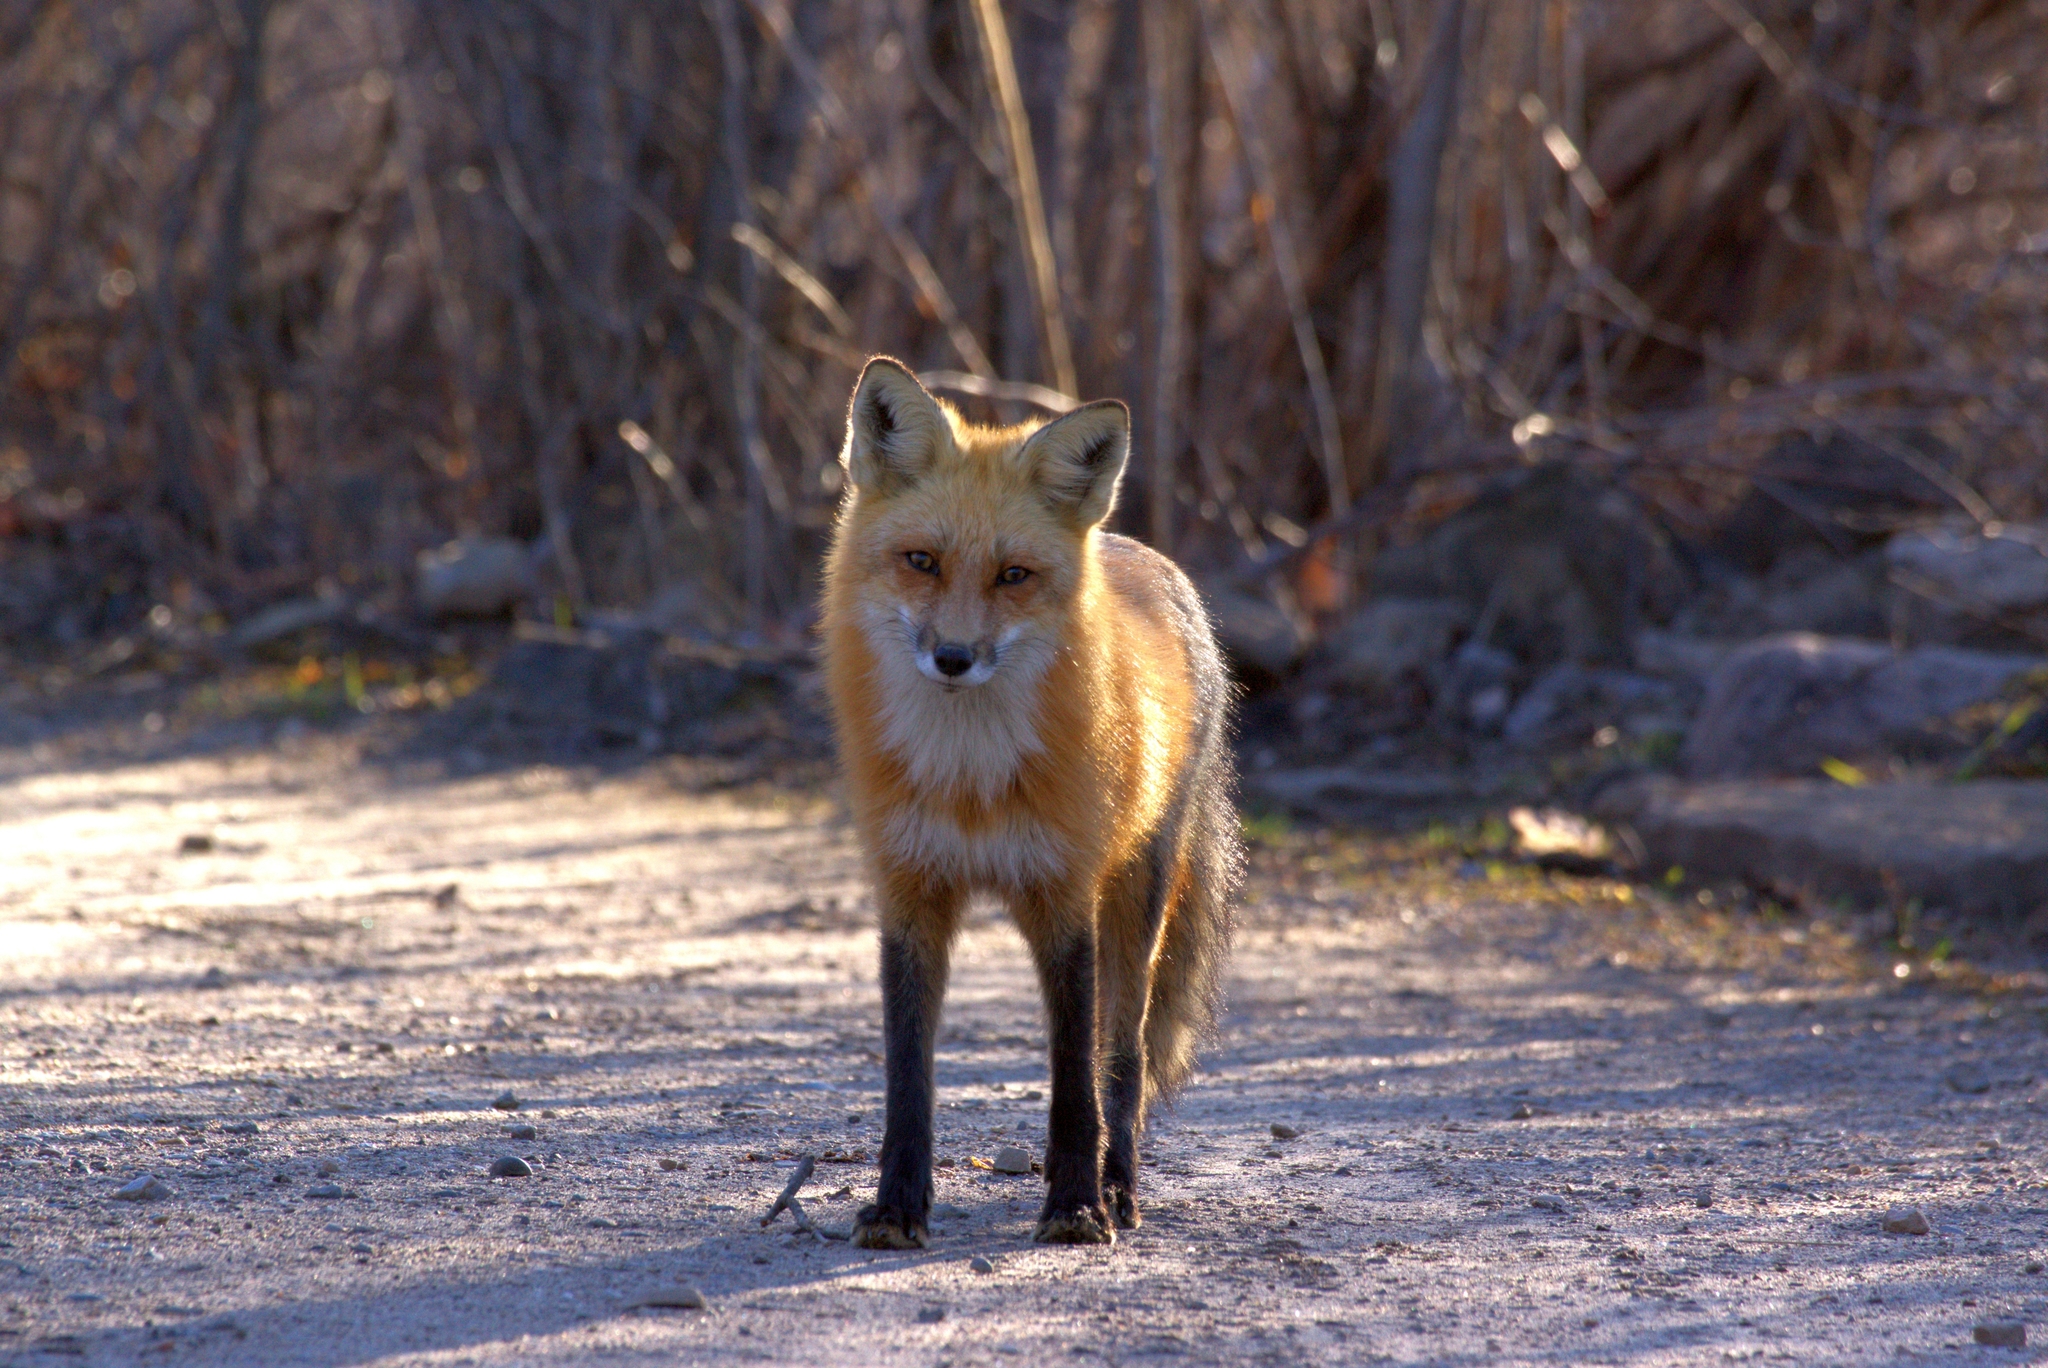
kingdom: Animalia
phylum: Chordata
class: Mammalia
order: Carnivora
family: Canidae
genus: Vulpes
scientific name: Vulpes vulpes
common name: Red fox
